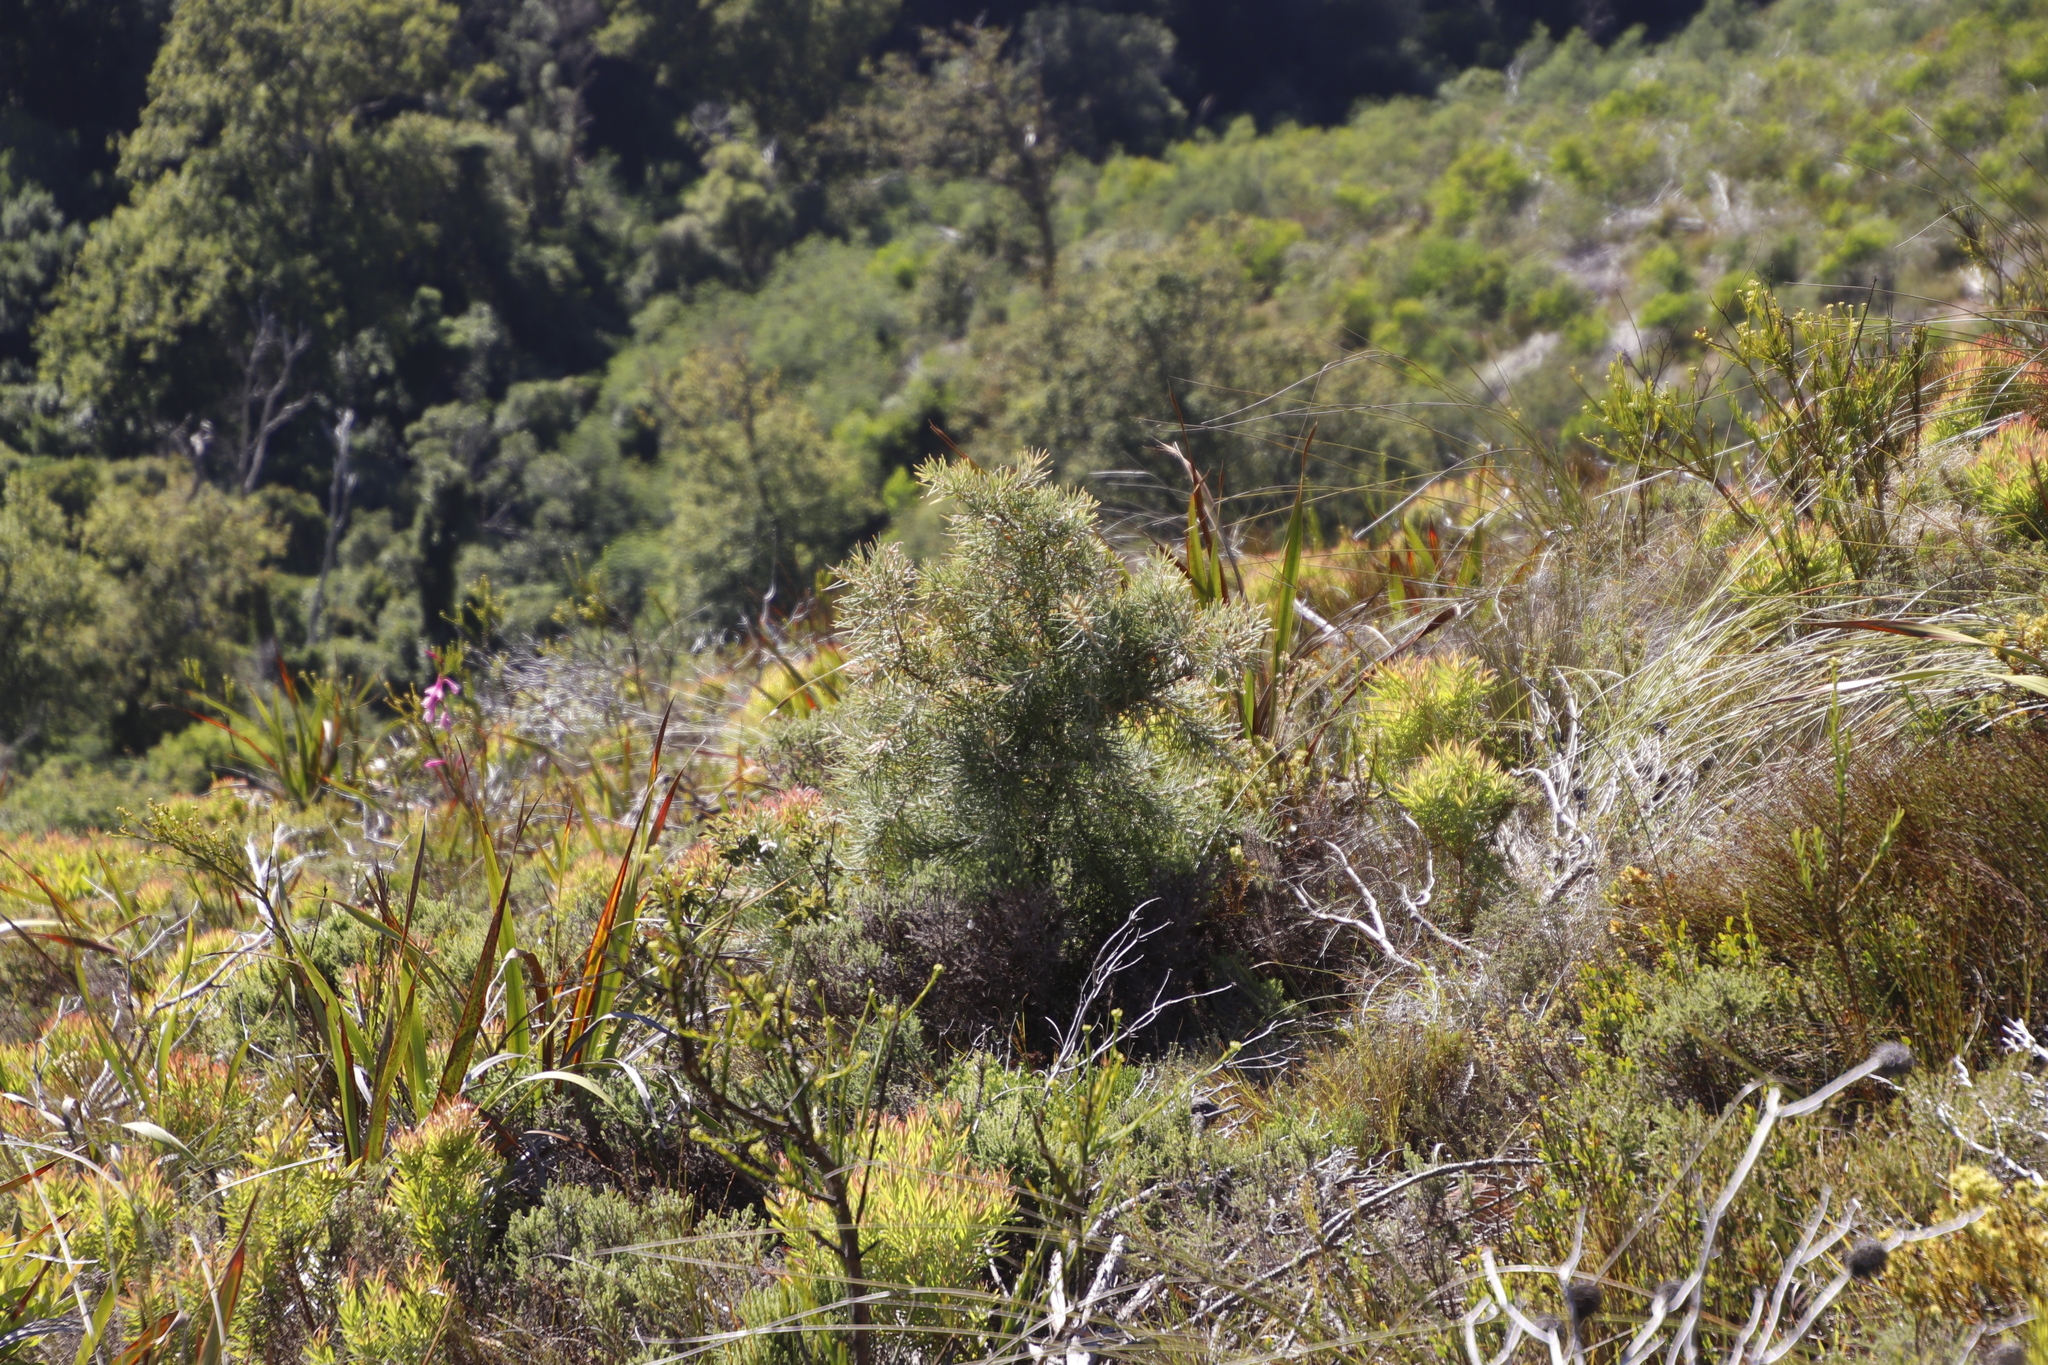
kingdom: Plantae
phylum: Tracheophyta
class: Magnoliopsida
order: Proteales
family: Proteaceae
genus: Hakea
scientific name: Hakea gibbosa
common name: Rock hakea
